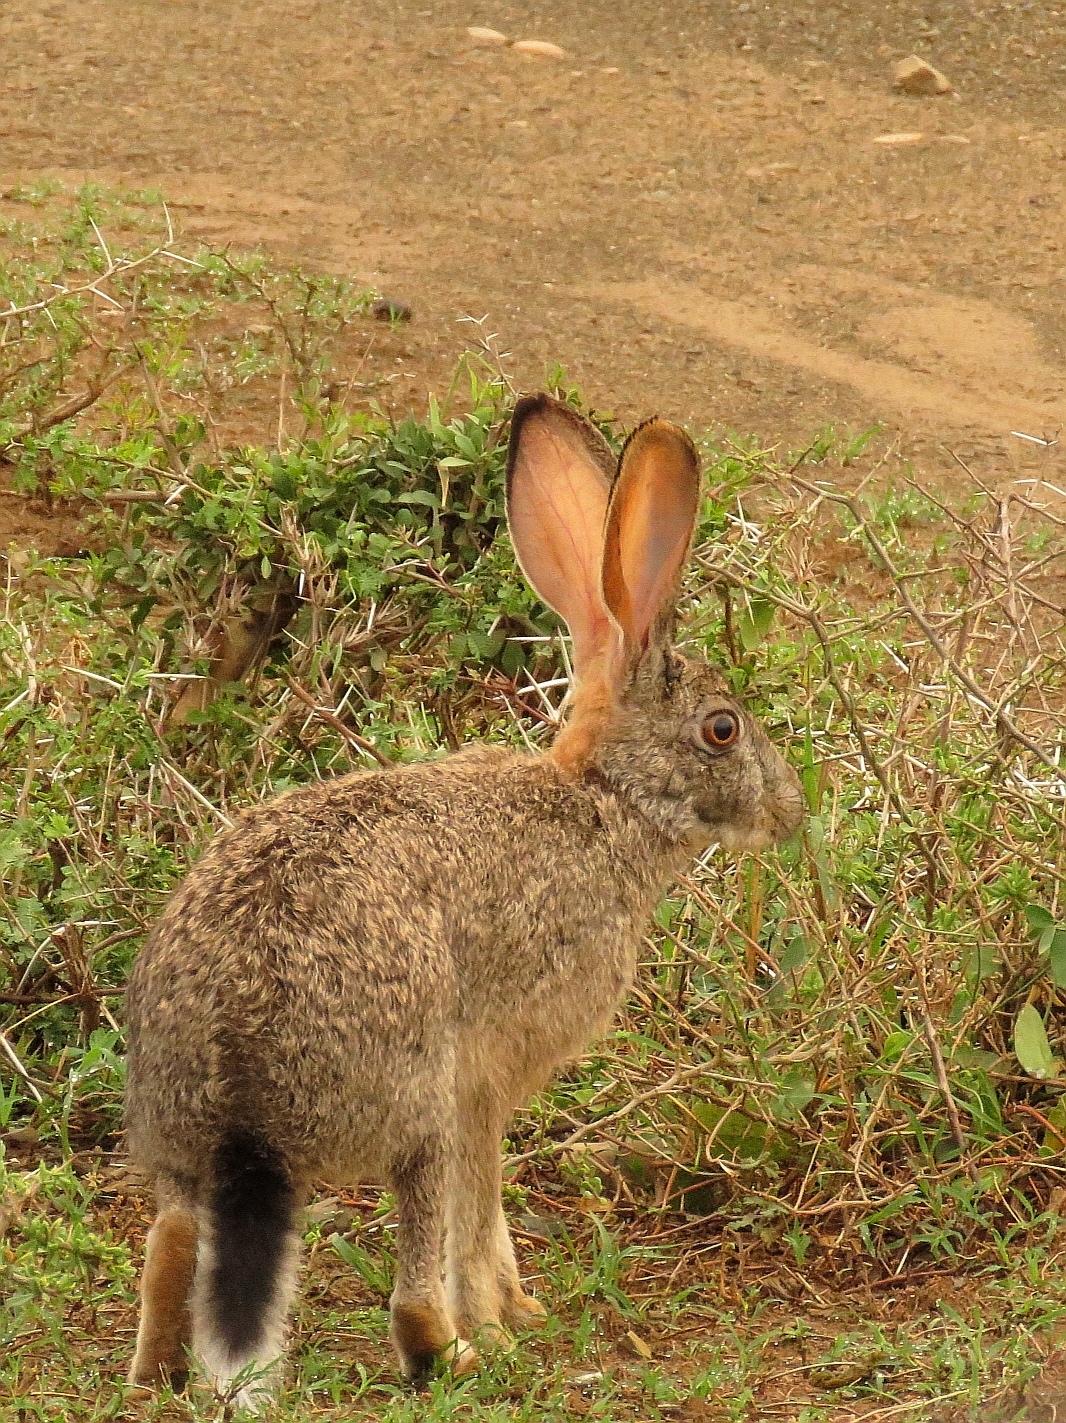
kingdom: Animalia
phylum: Chordata
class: Mammalia
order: Lagomorpha
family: Leporidae
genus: Lepus
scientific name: Lepus saxatilis
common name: Scrub hare
